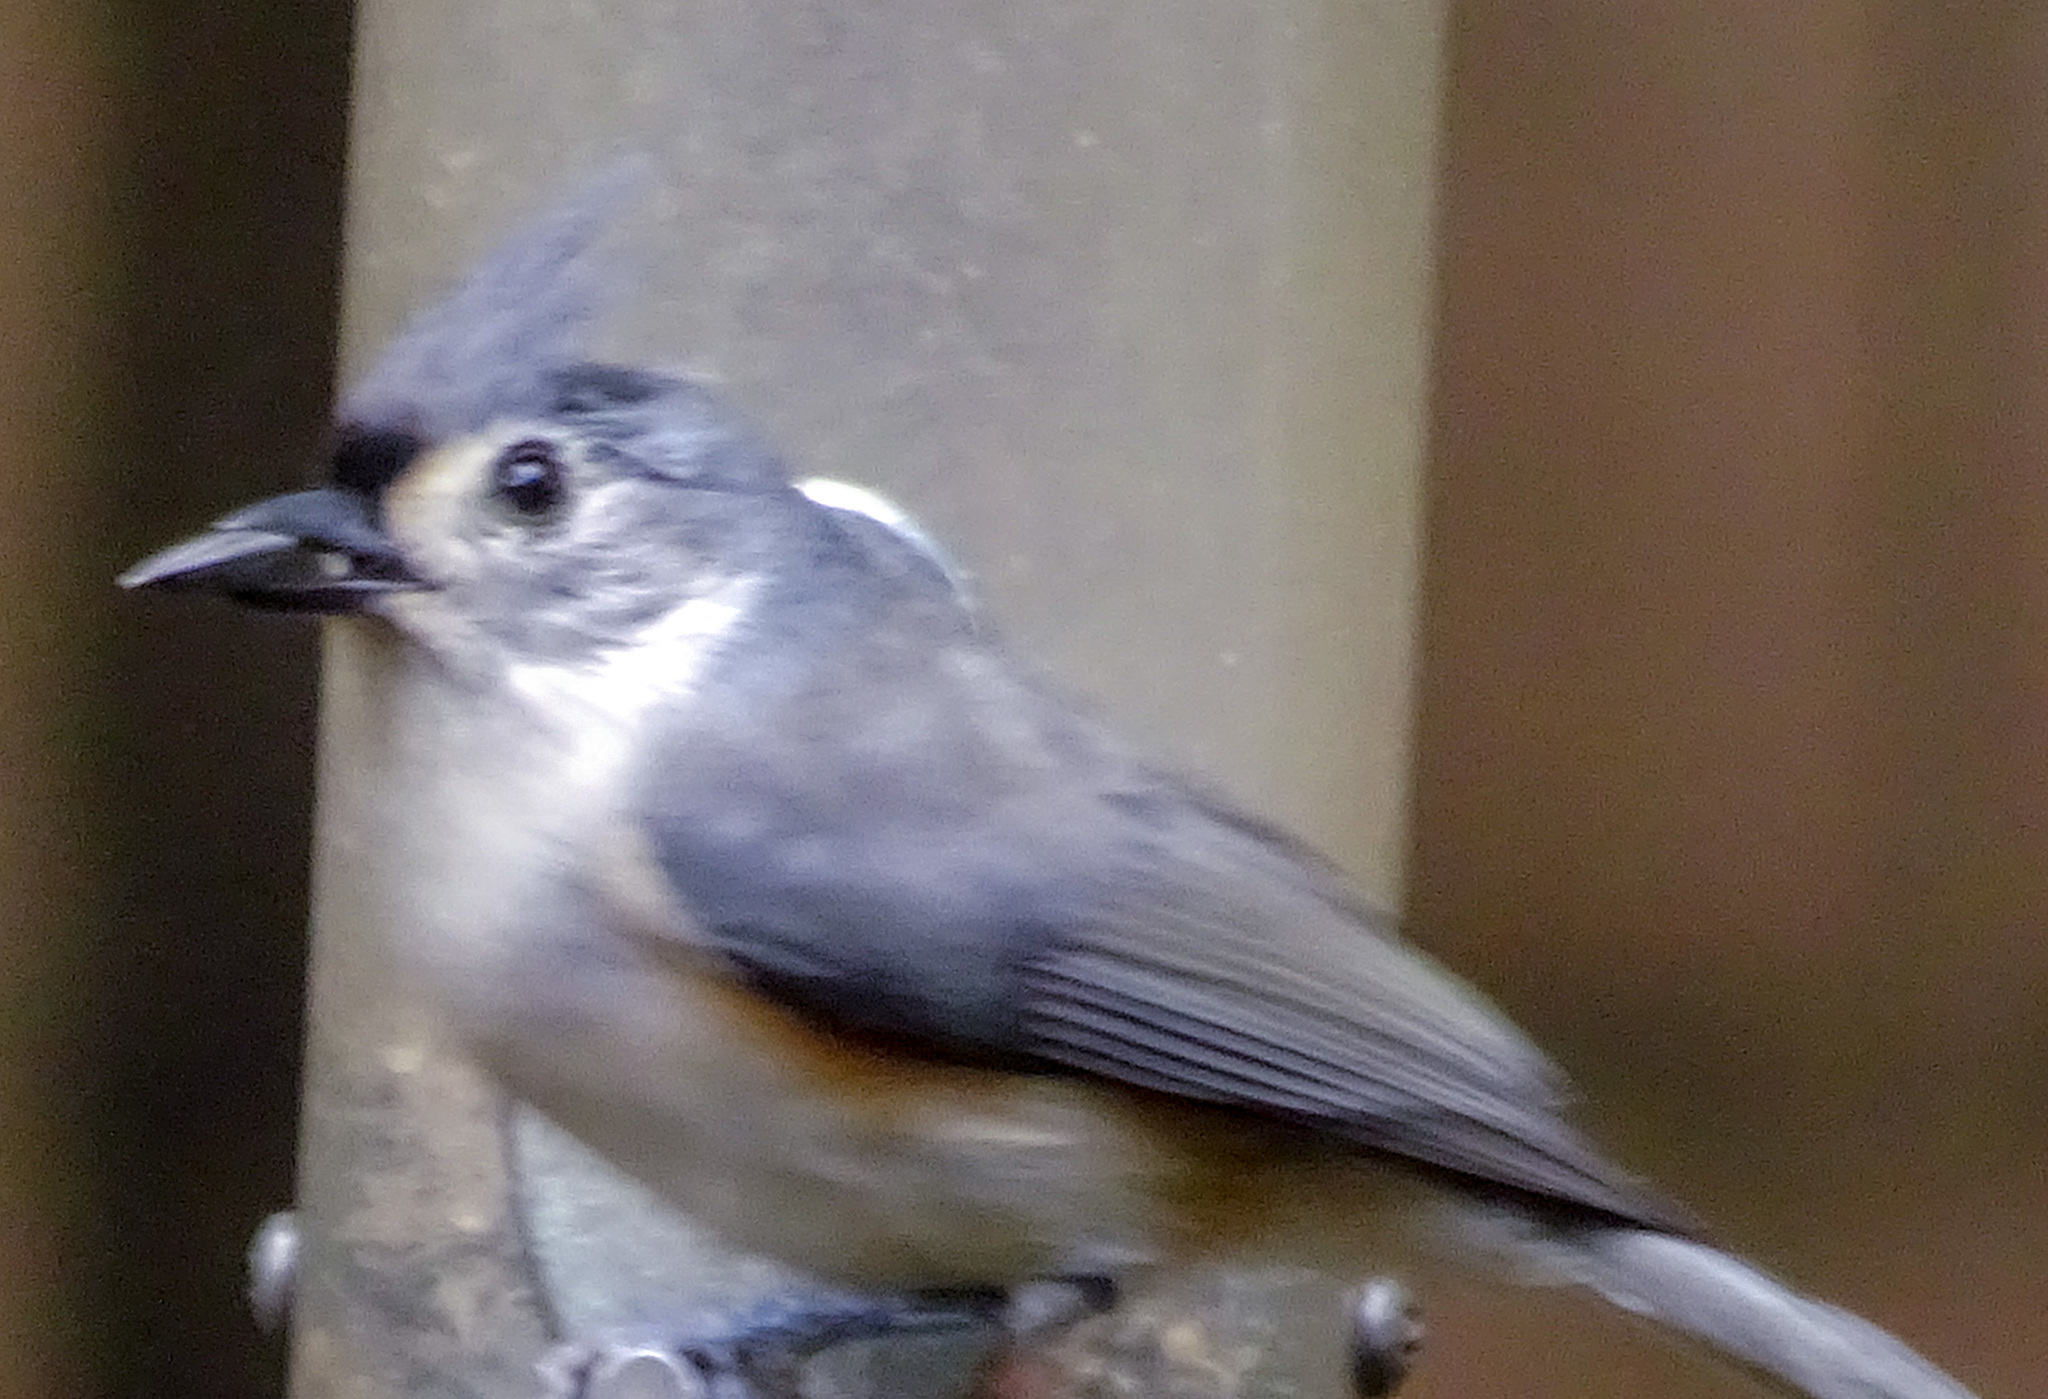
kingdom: Animalia
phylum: Chordata
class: Aves
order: Passeriformes
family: Paridae
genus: Baeolophus
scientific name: Baeolophus bicolor
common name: Tufted titmouse
